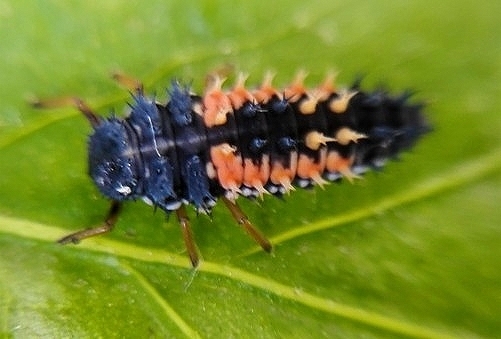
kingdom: Animalia
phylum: Arthropoda
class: Insecta
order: Coleoptera
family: Coccinellidae
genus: Harmonia
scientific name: Harmonia axyridis
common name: Harlequin ladybird
